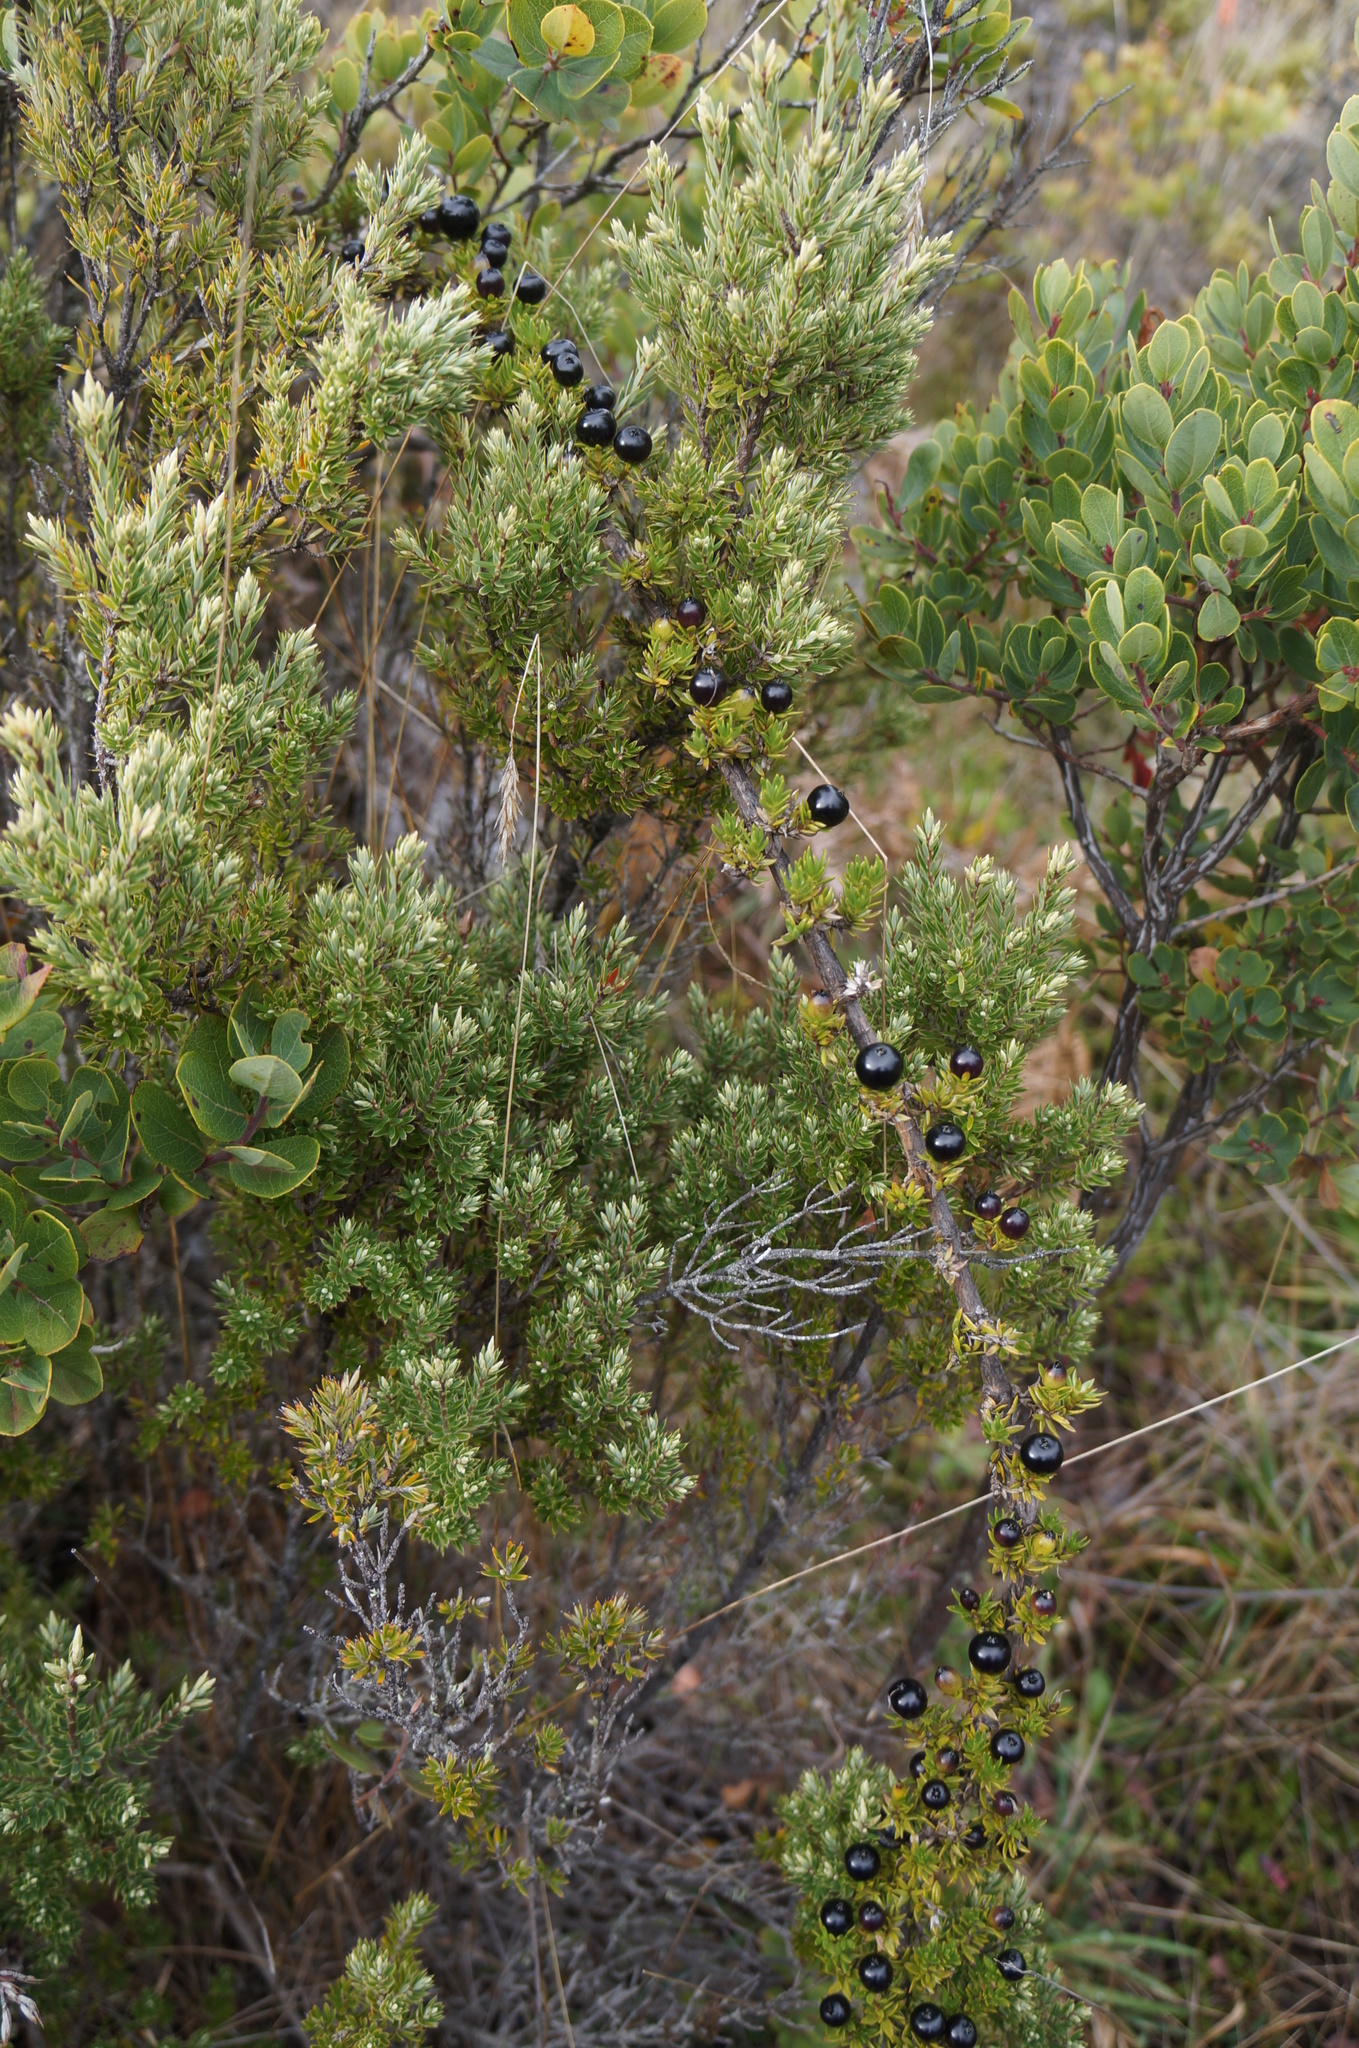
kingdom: Plantae
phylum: Tracheophyta
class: Magnoliopsida
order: Gentianales
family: Rubiaceae
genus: Coprosma
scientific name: Coprosma ernodeoides
